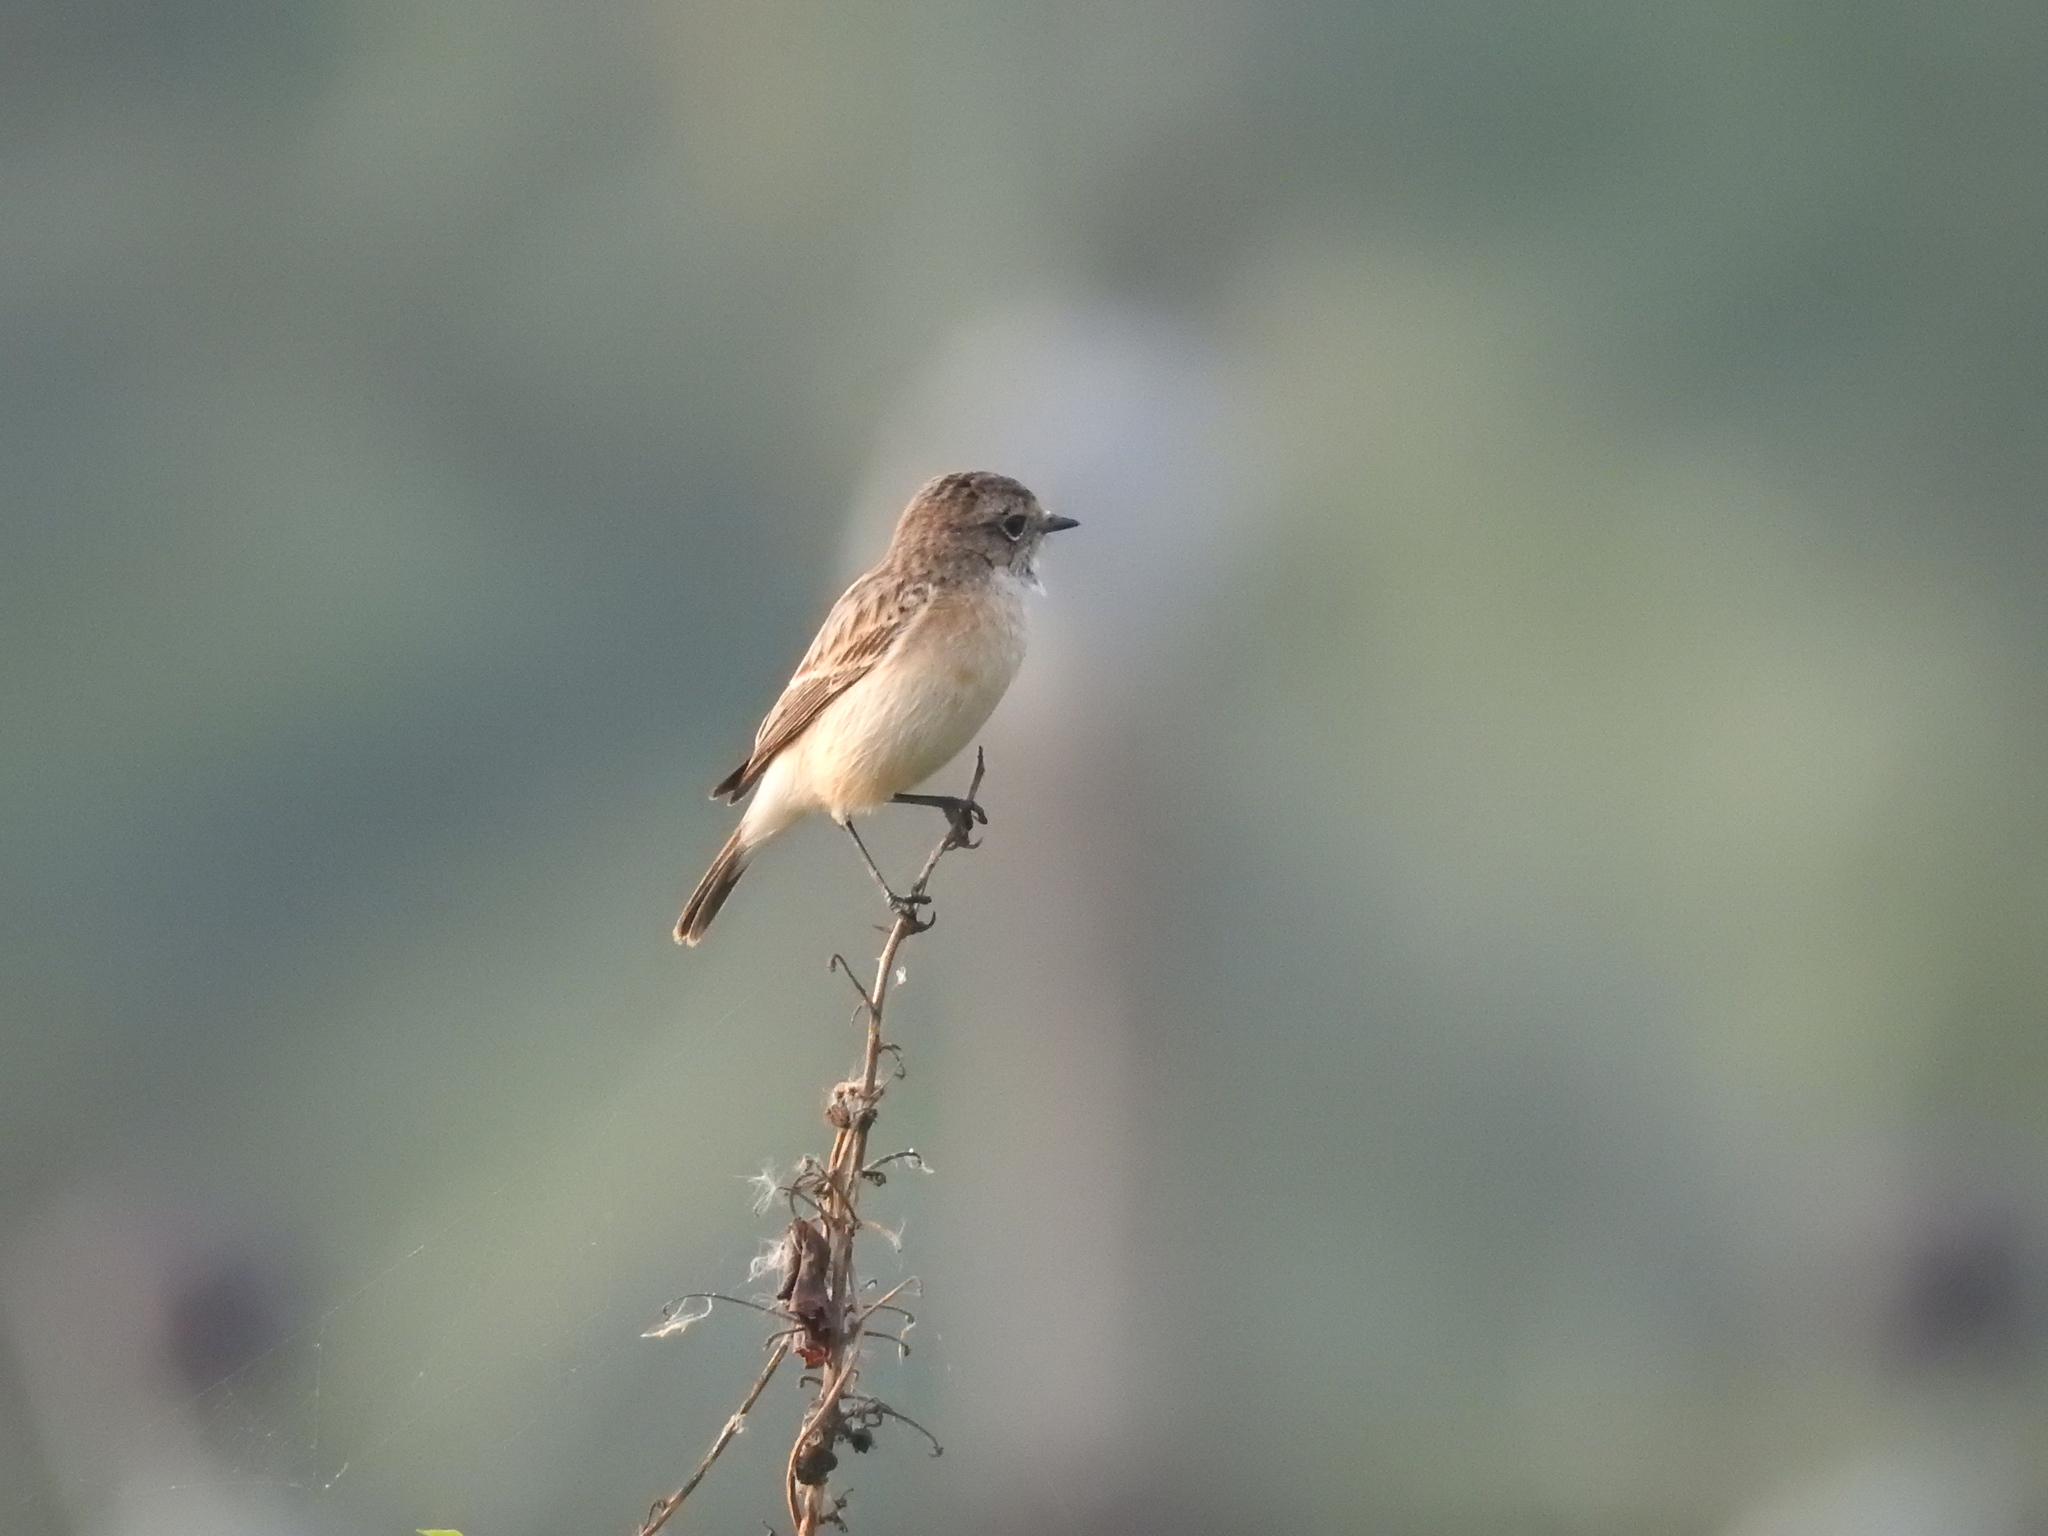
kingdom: Animalia
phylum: Chordata
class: Aves
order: Passeriformes
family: Muscicapidae
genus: Saxicola
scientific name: Saxicola maurus
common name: Siberian stonechat
